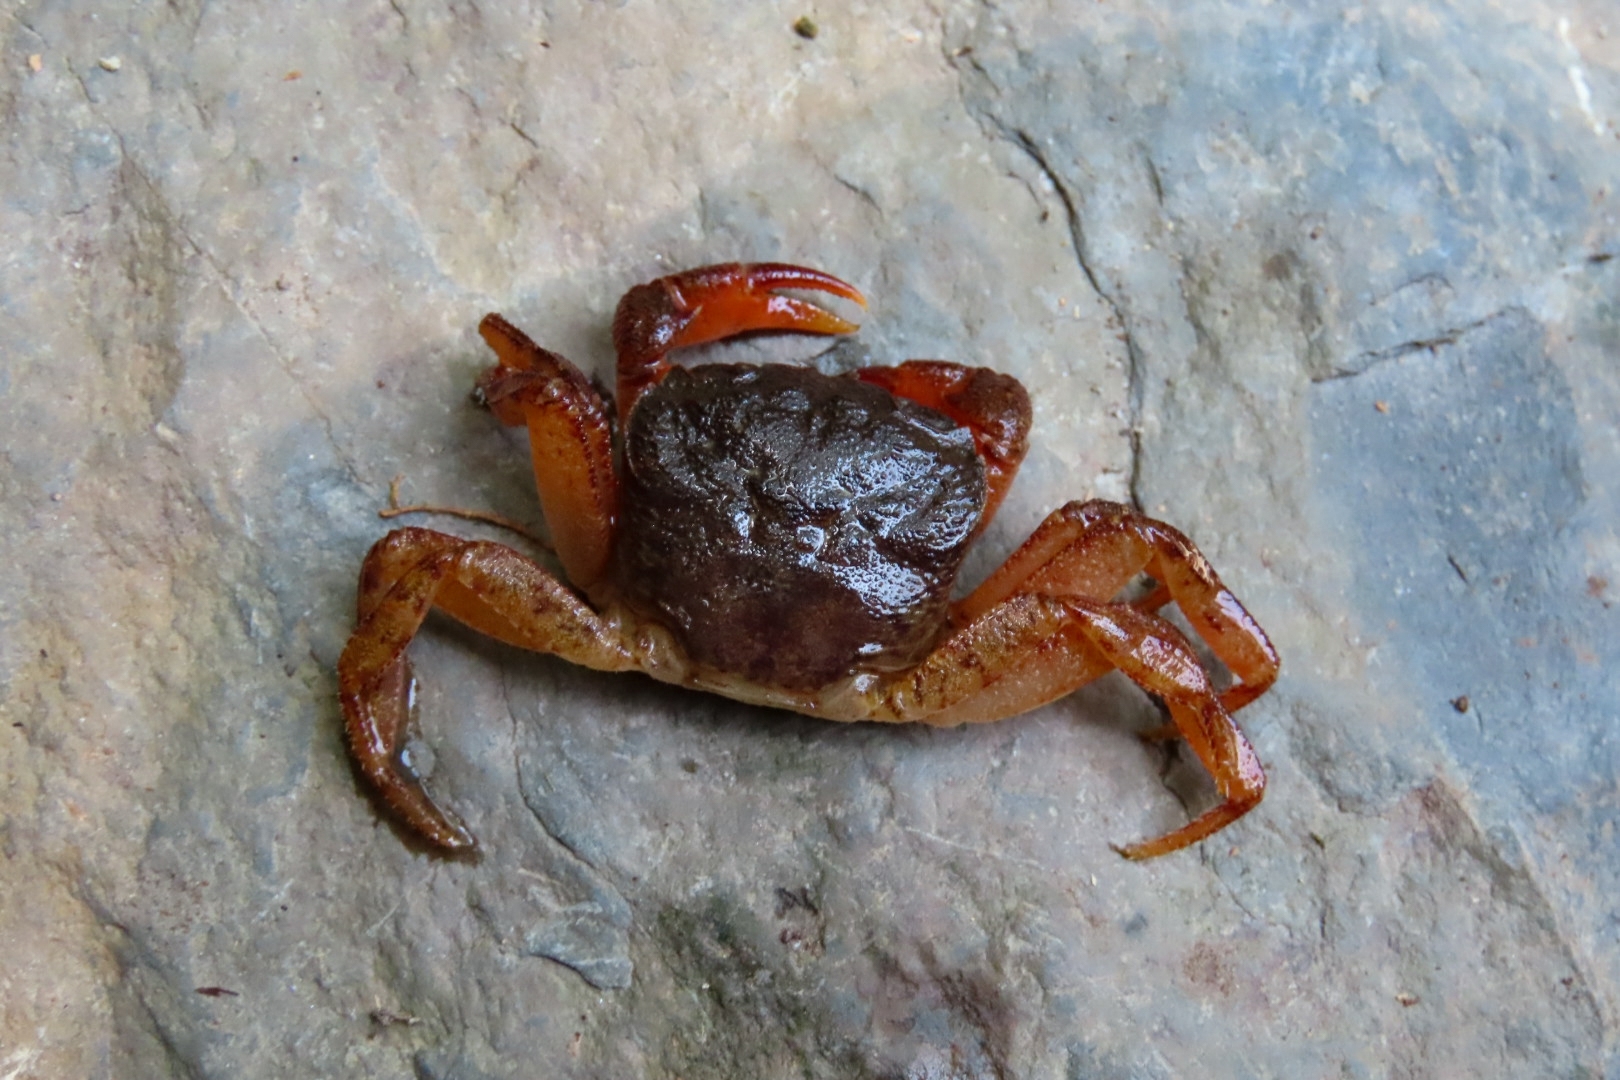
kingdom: Animalia
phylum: Arthropoda
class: Malacostraca
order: Decapoda
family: Potamidae
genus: Candidiopotamon
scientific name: Candidiopotamon rathbuni
